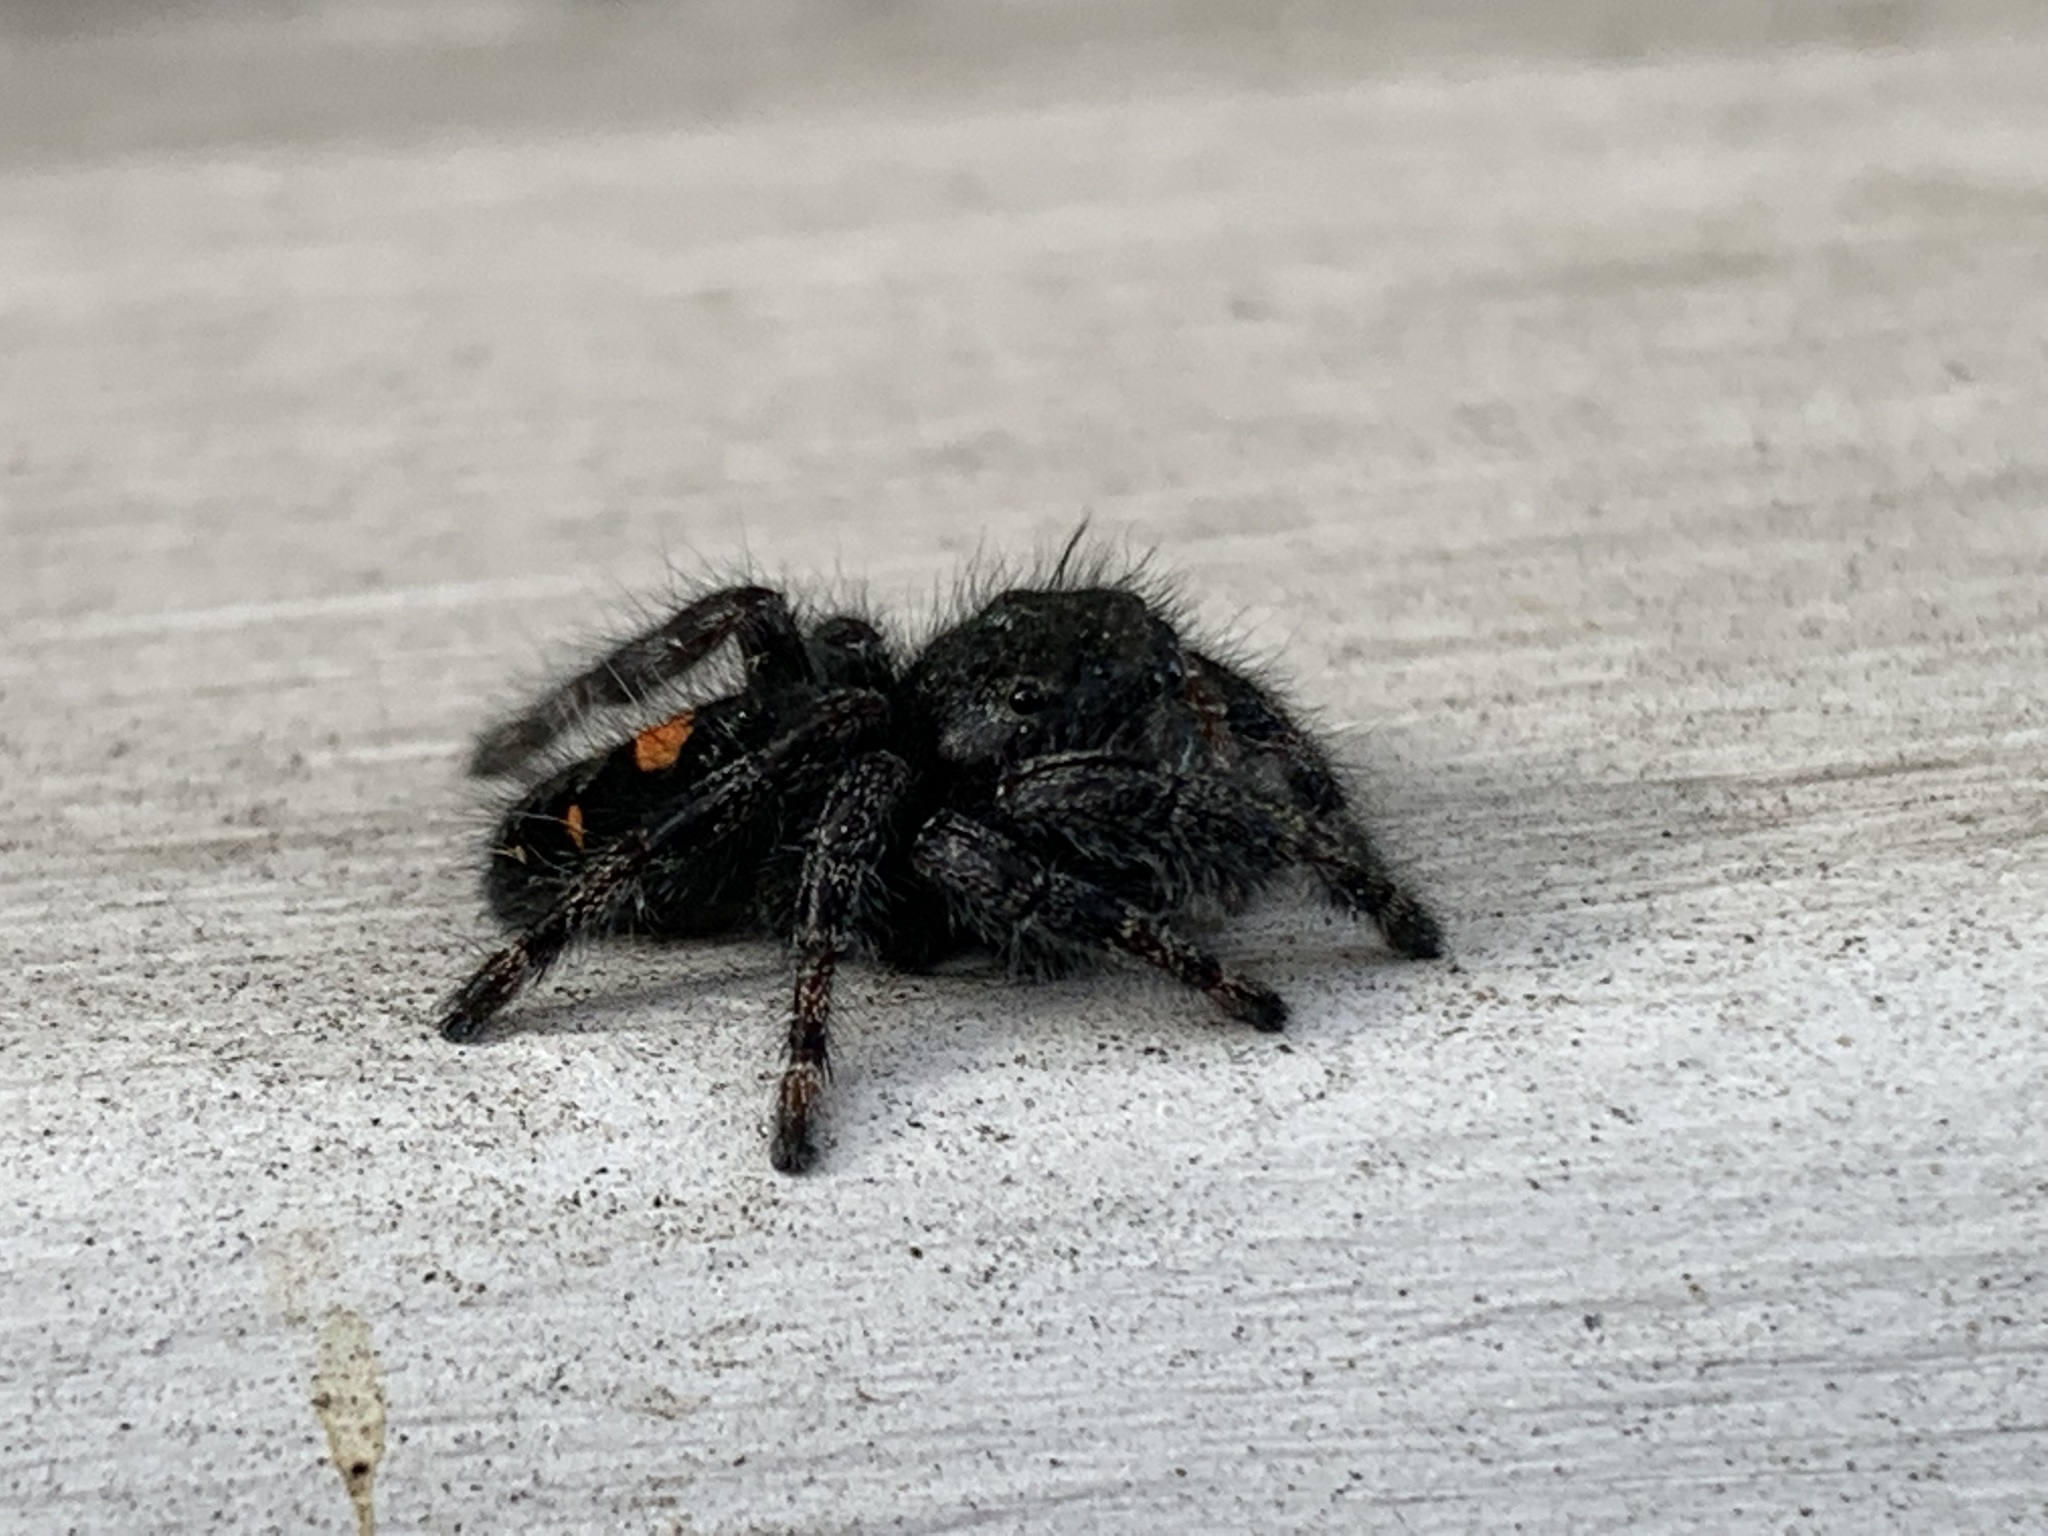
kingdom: Animalia
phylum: Arthropoda
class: Arachnida
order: Araneae
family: Salticidae
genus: Phidippus
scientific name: Phidippus audax
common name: Bold jumper
